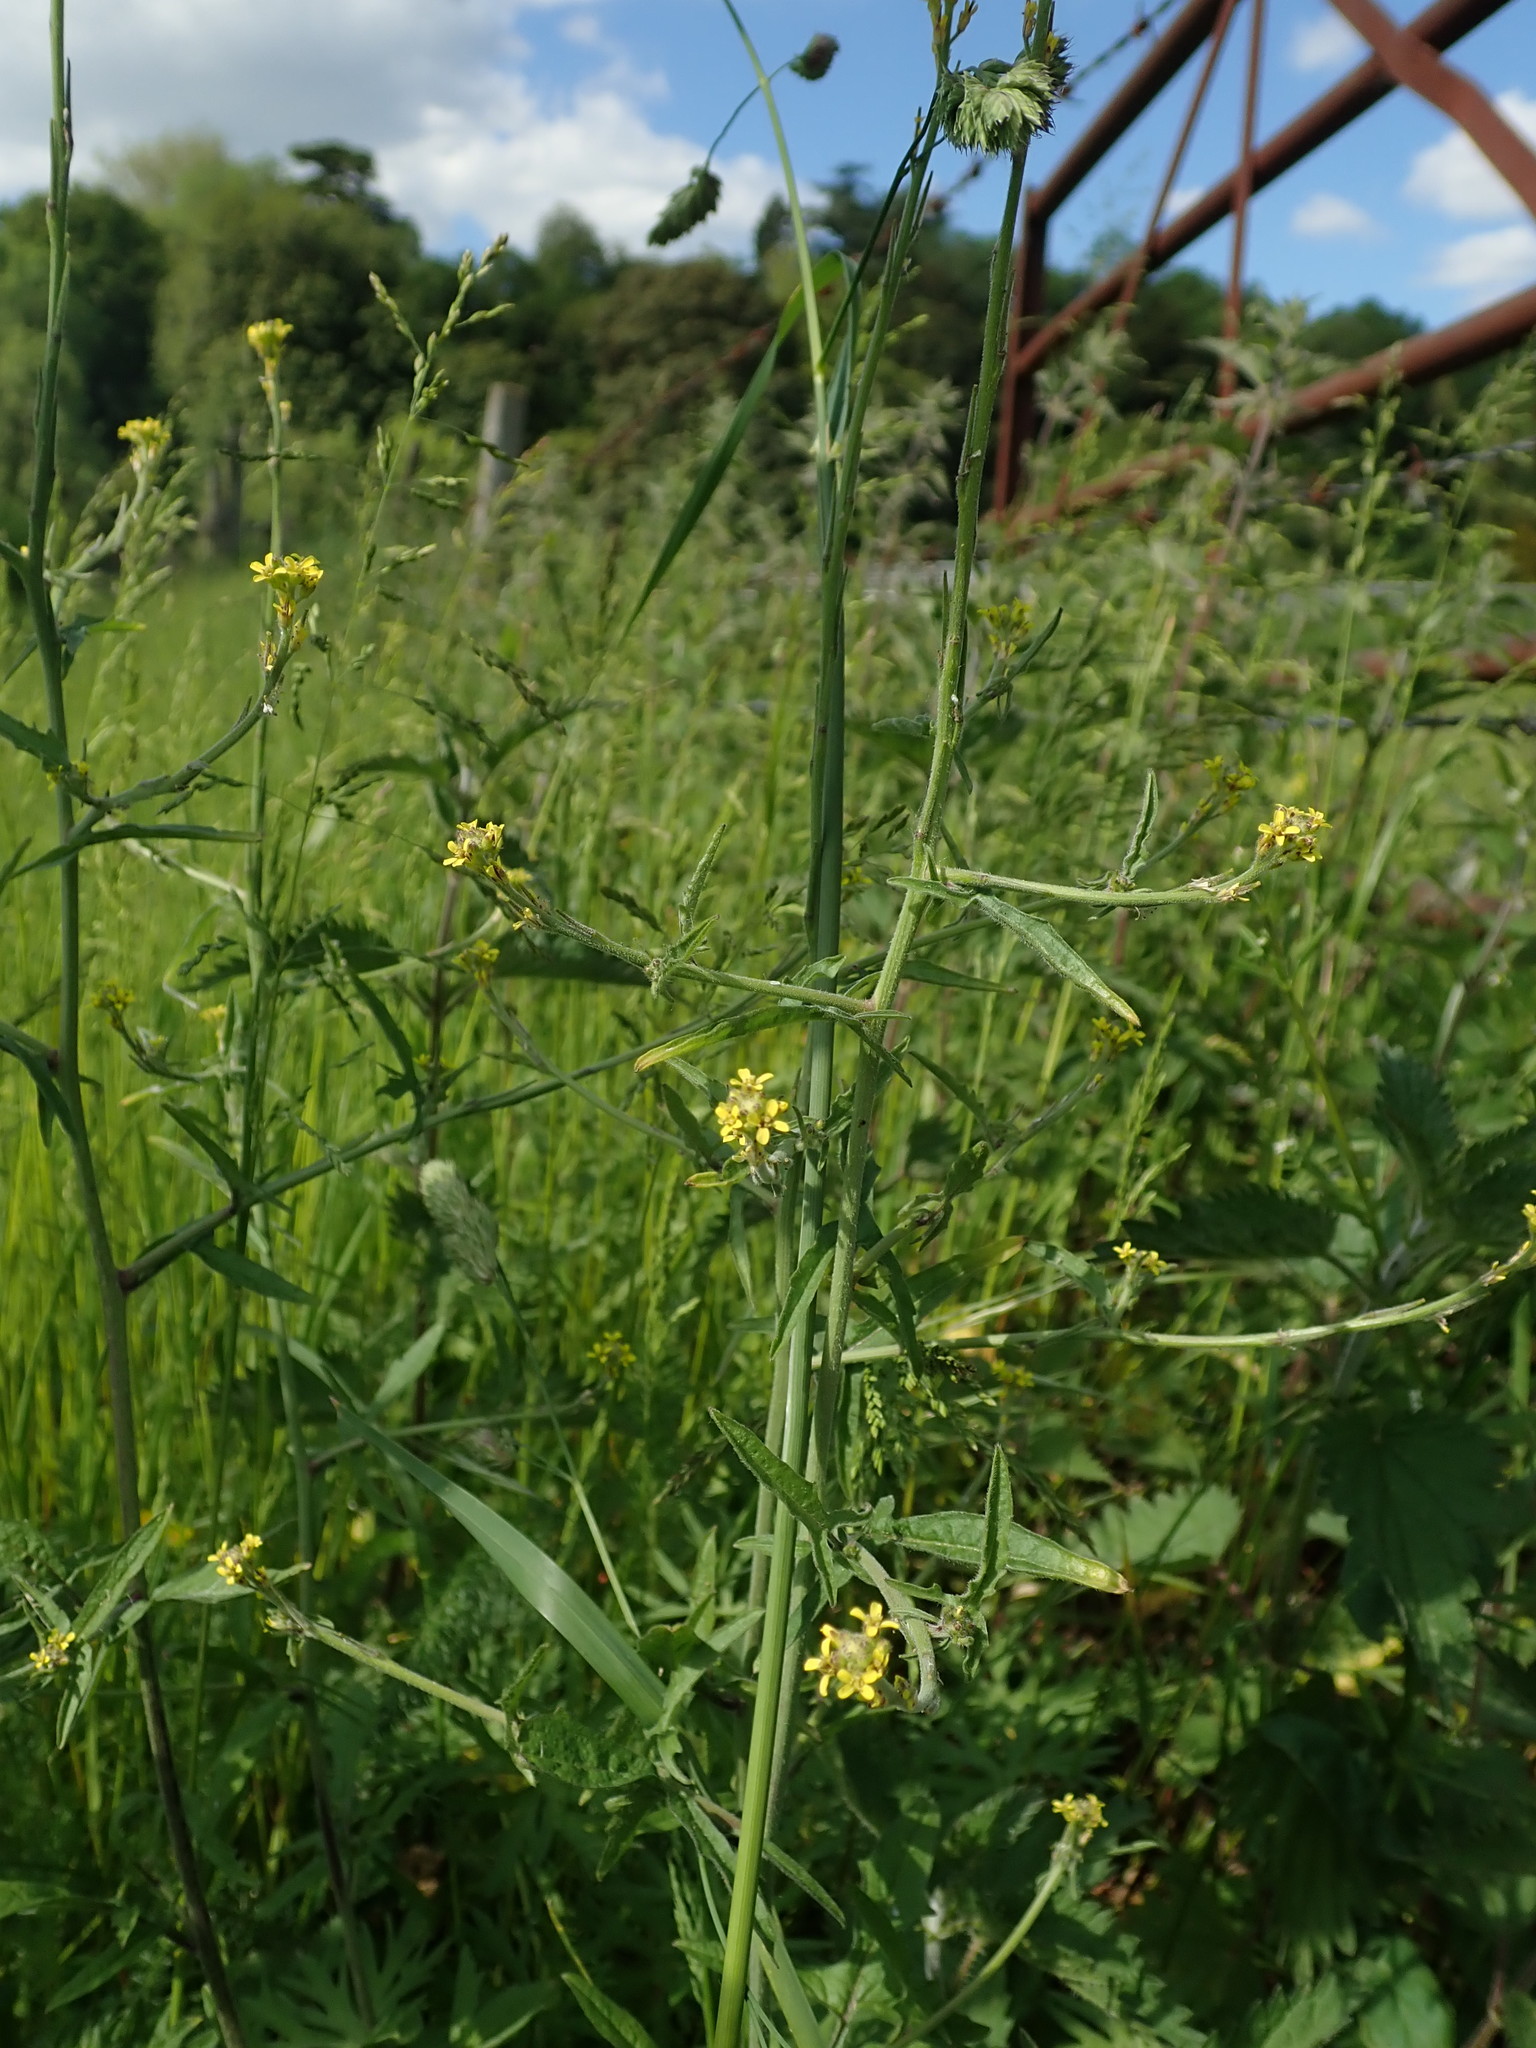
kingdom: Plantae
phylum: Tracheophyta
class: Magnoliopsida
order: Brassicales
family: Brassicaceae
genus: Sisymbrium
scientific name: Sisymbrium officinale
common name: Hedge mustard
